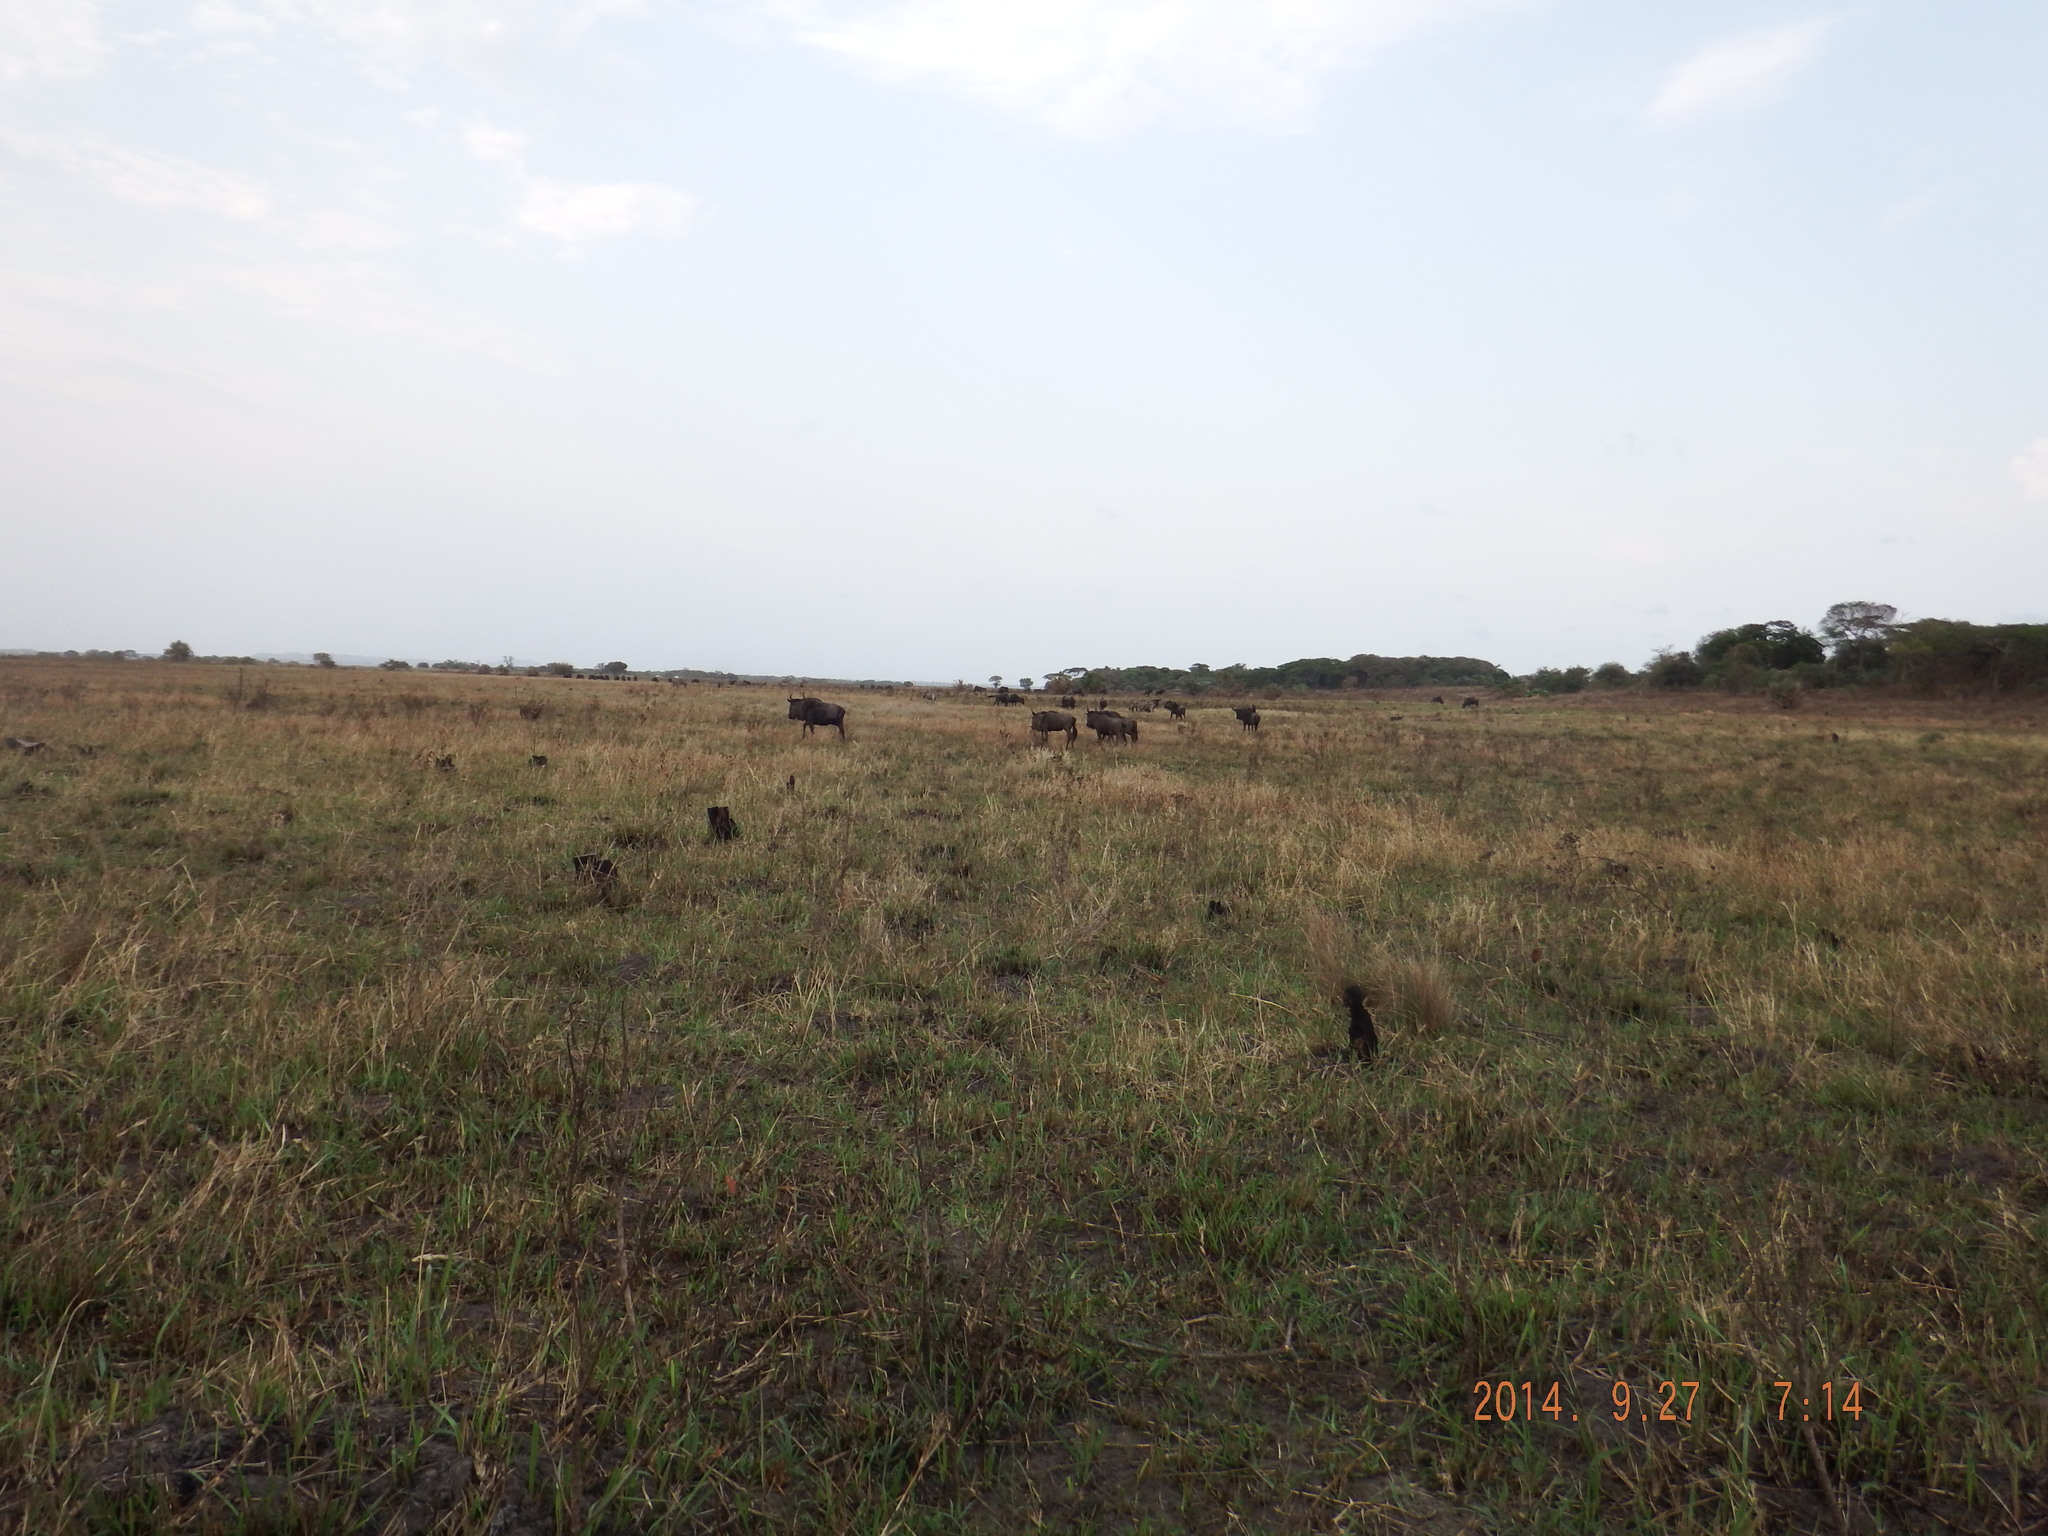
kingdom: Animalia
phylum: Chordata
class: Mammalia
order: Artiodactyla
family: Bovidae
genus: Connochaetes
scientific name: Connochaetes taurinus
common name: Blue wildebeest
